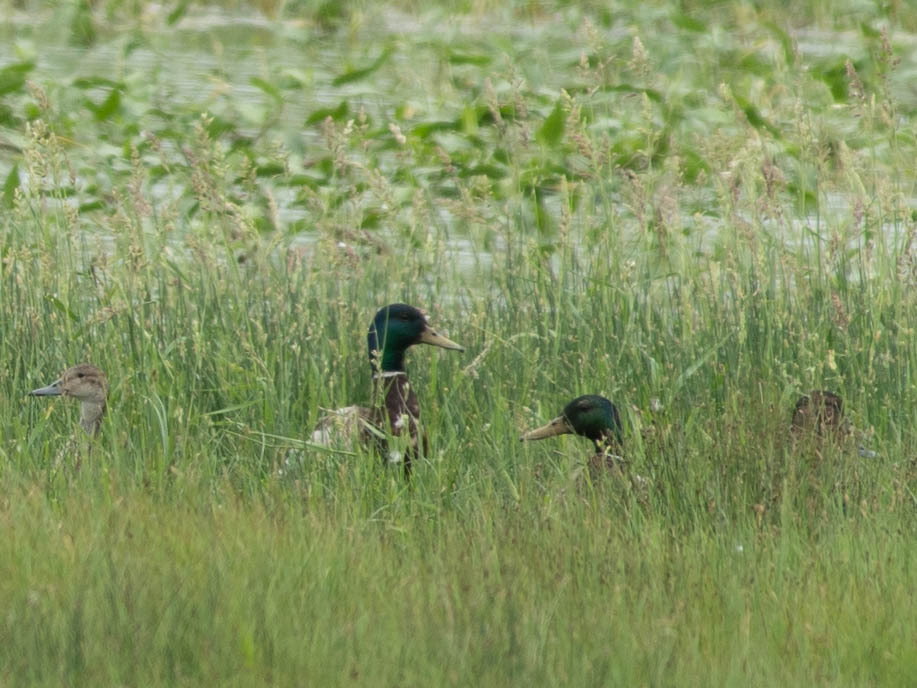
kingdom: Animalia
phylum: Chordata
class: Aves
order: Anseriformes
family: Anatidae
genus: Anas
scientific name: Anas platyrhynchos
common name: Mallard
